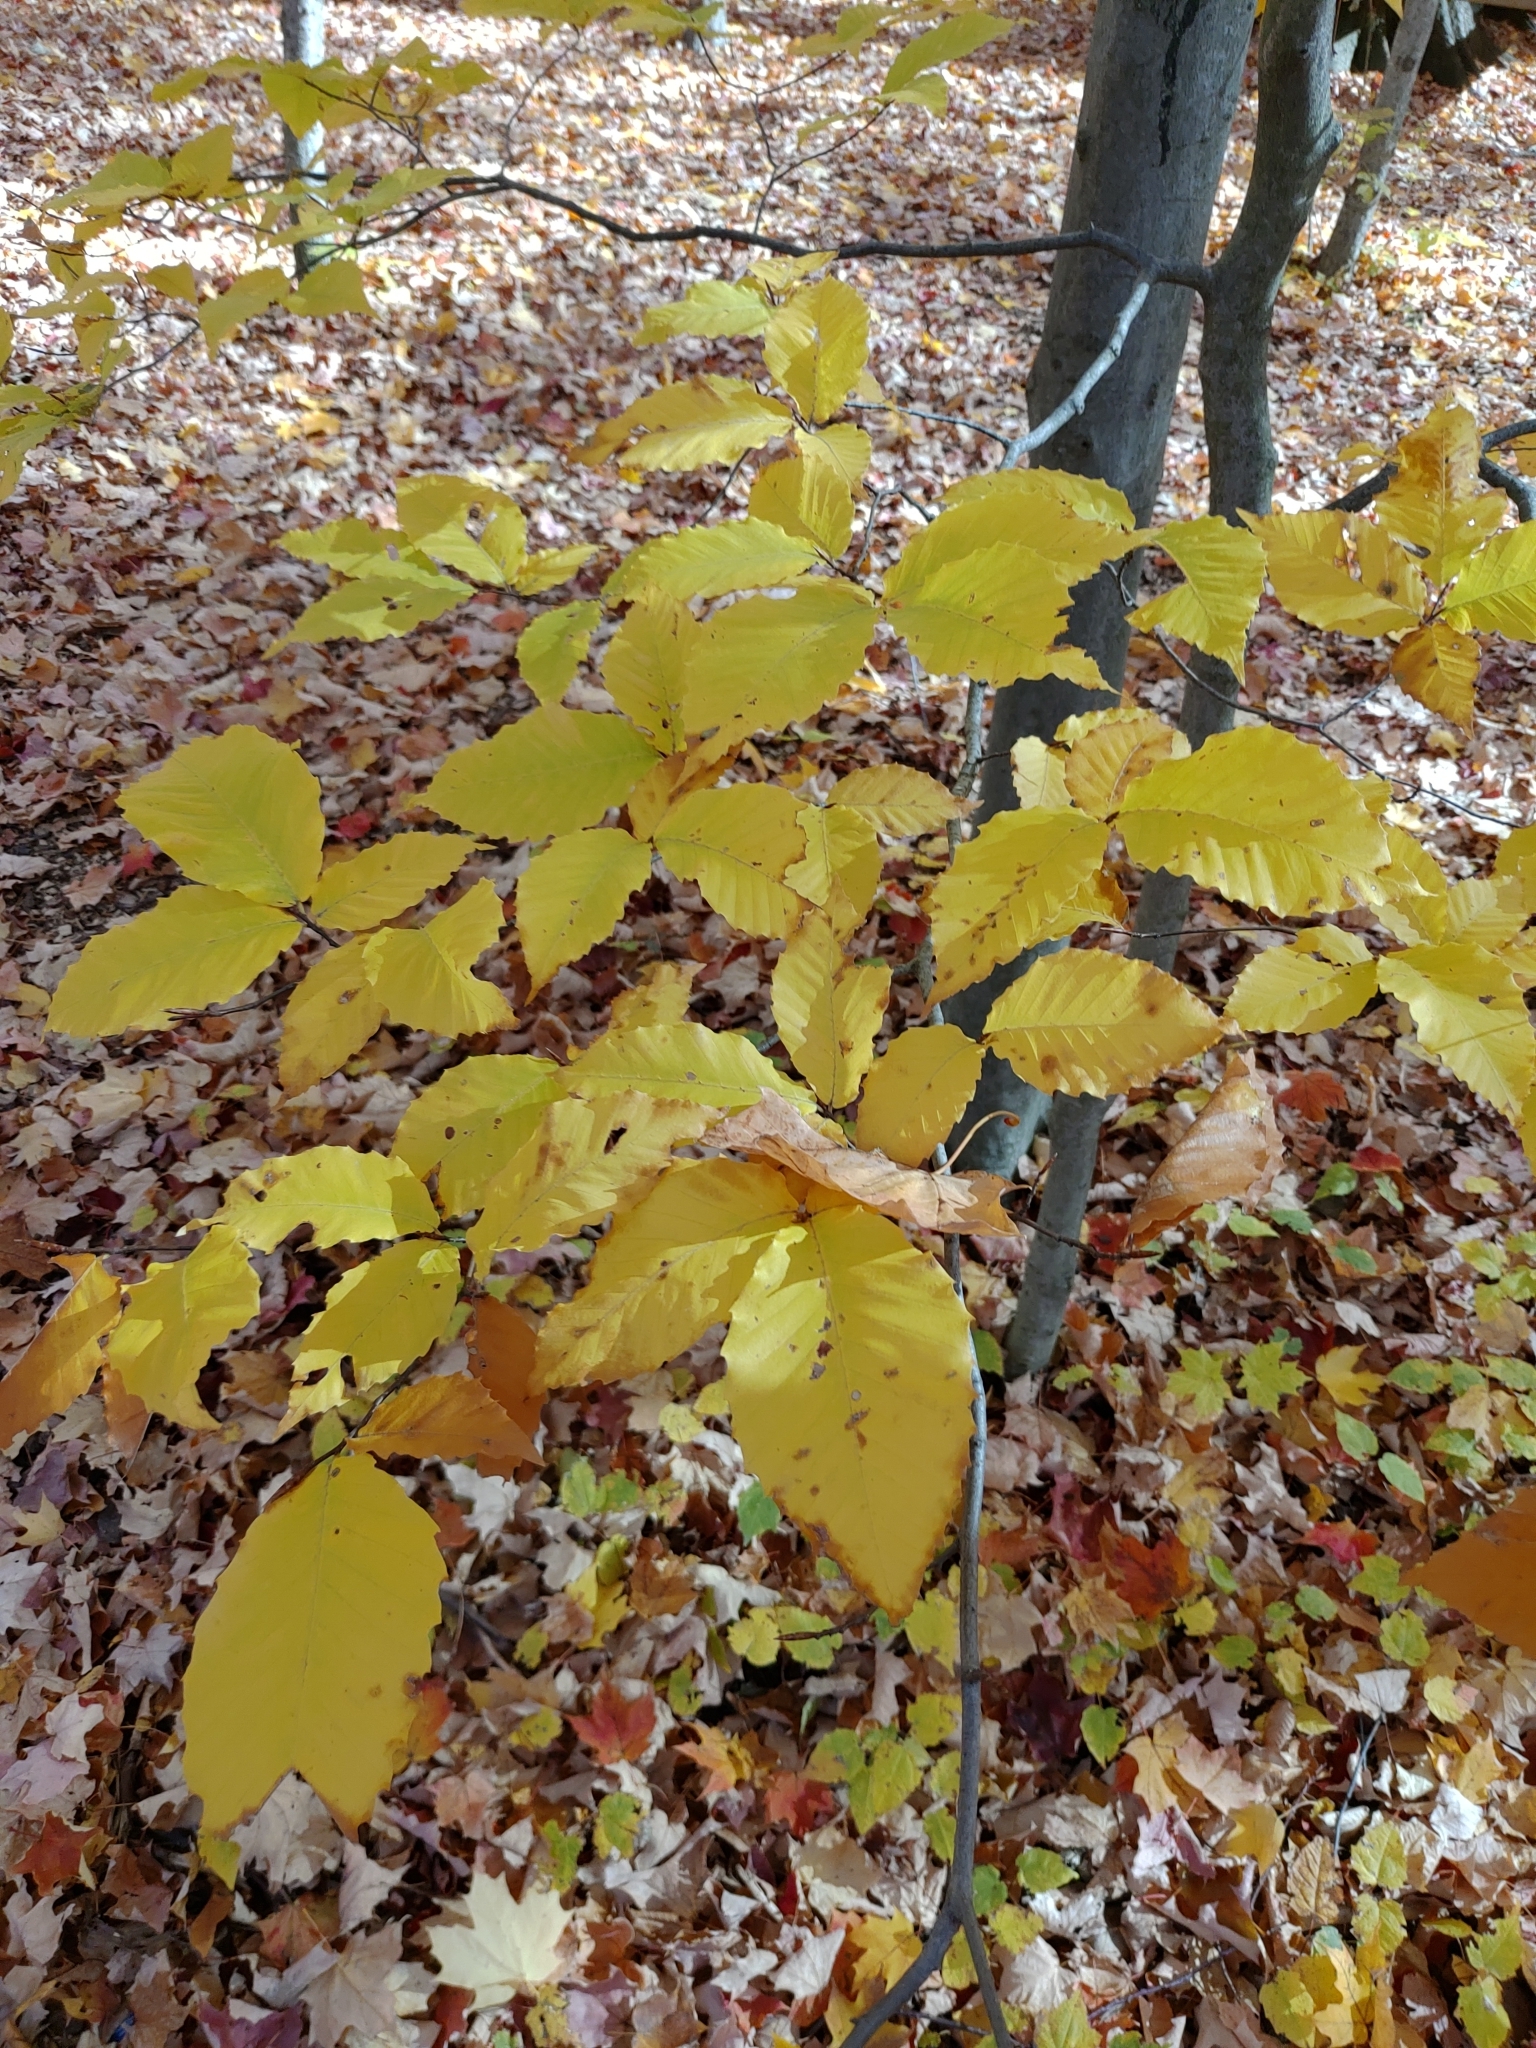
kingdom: Plantae
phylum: Tracheophyta
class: Magnoliopsida
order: Fagales
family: Fagaceae
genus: Fagus
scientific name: Fagus grandifolia
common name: American beech
